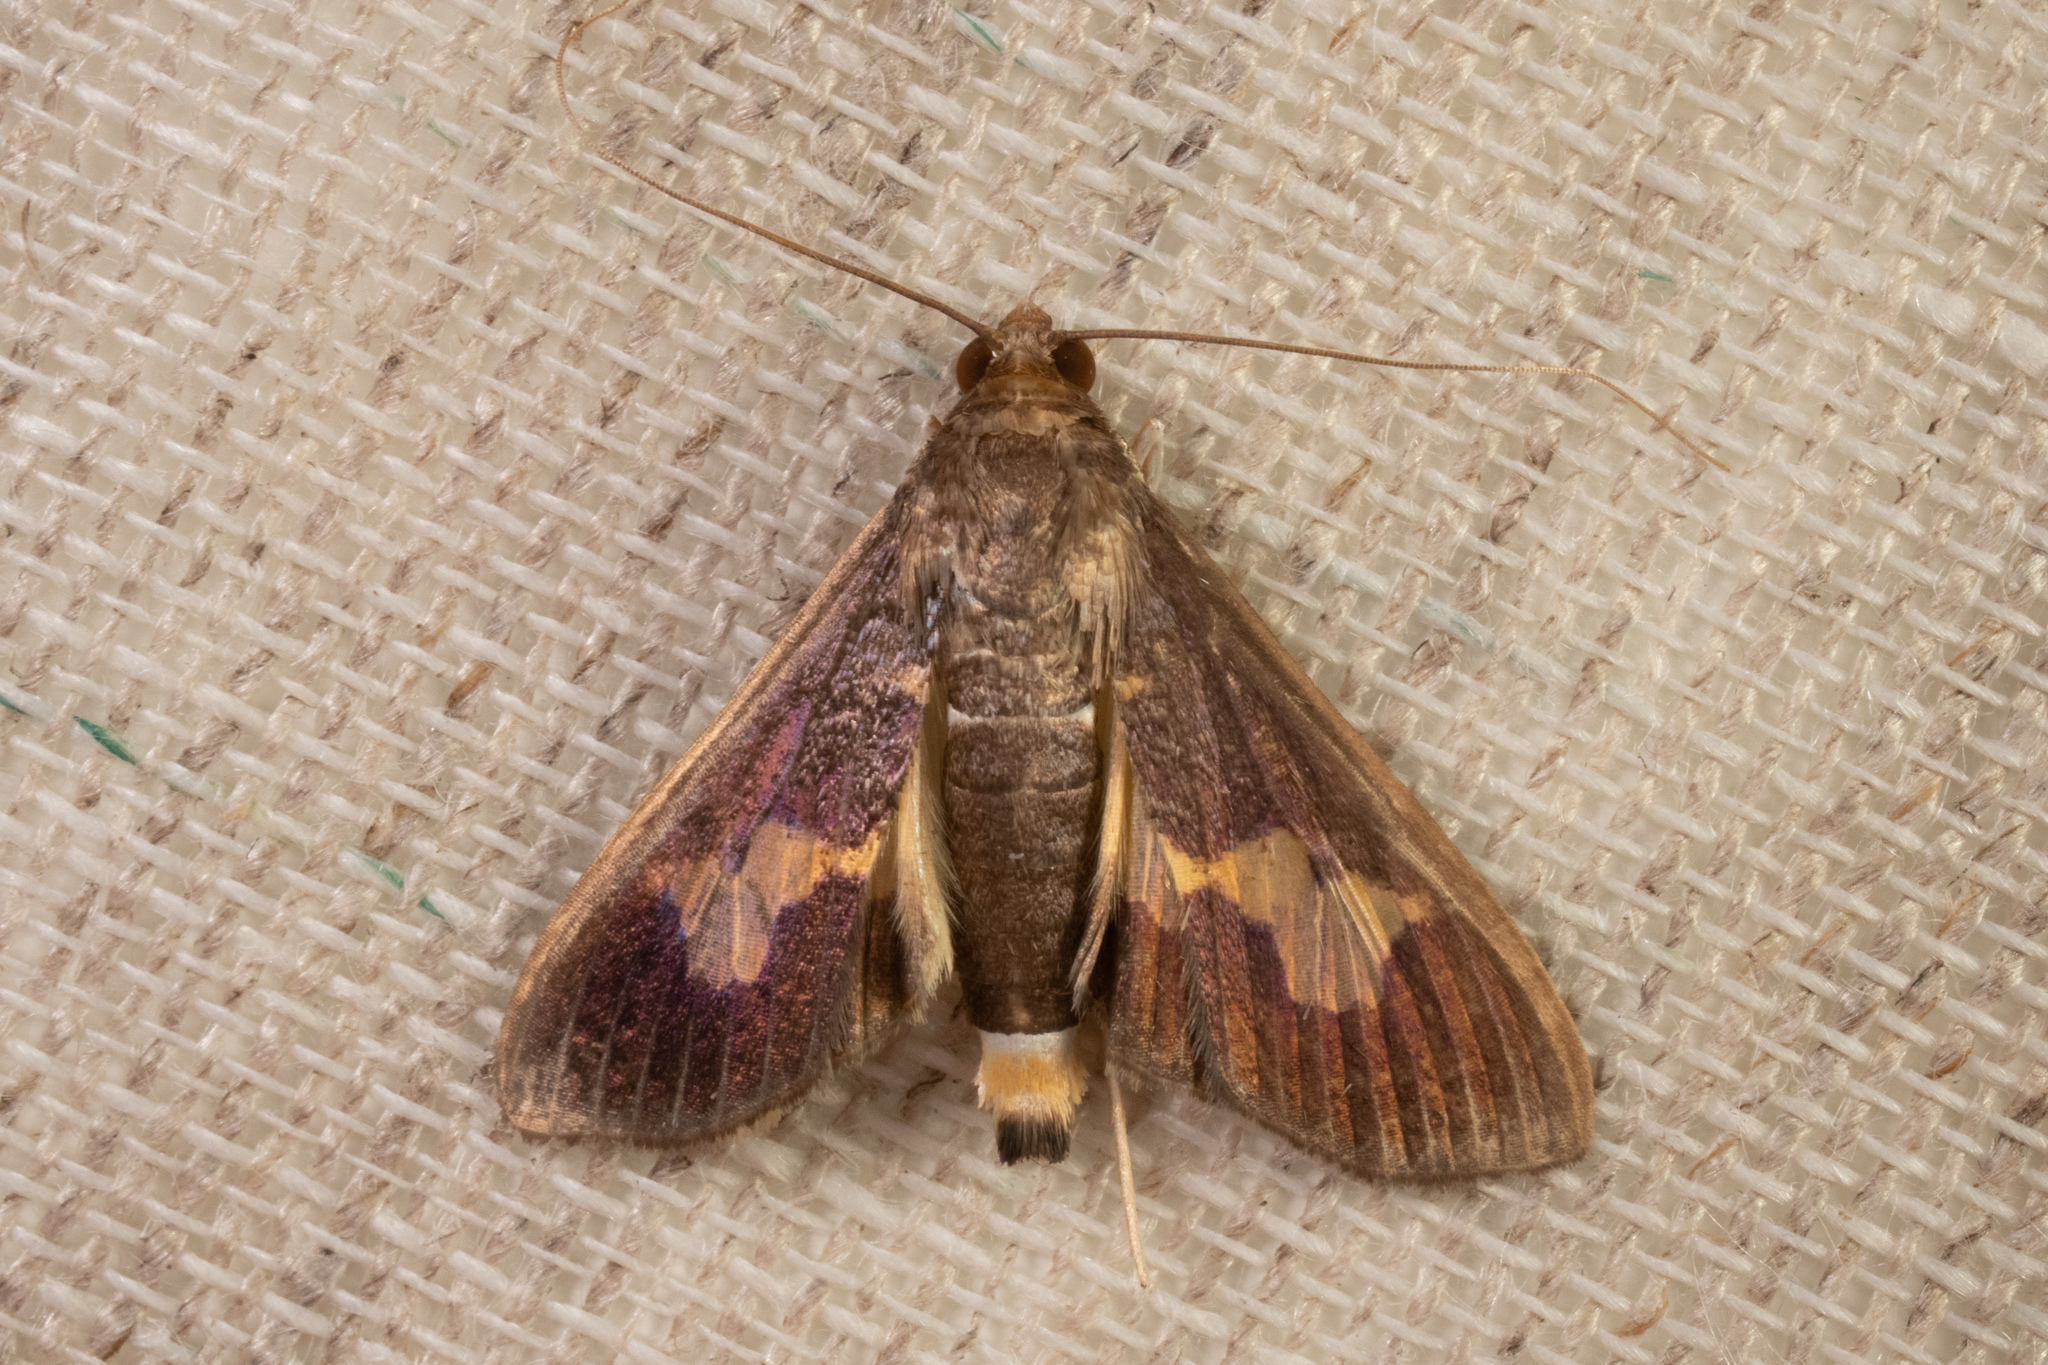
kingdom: Animalia
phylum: Arthropoda
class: Insecta
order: Lepidoptera
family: Crambidae
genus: Cryptographis
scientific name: Cryptographis nitidalis
